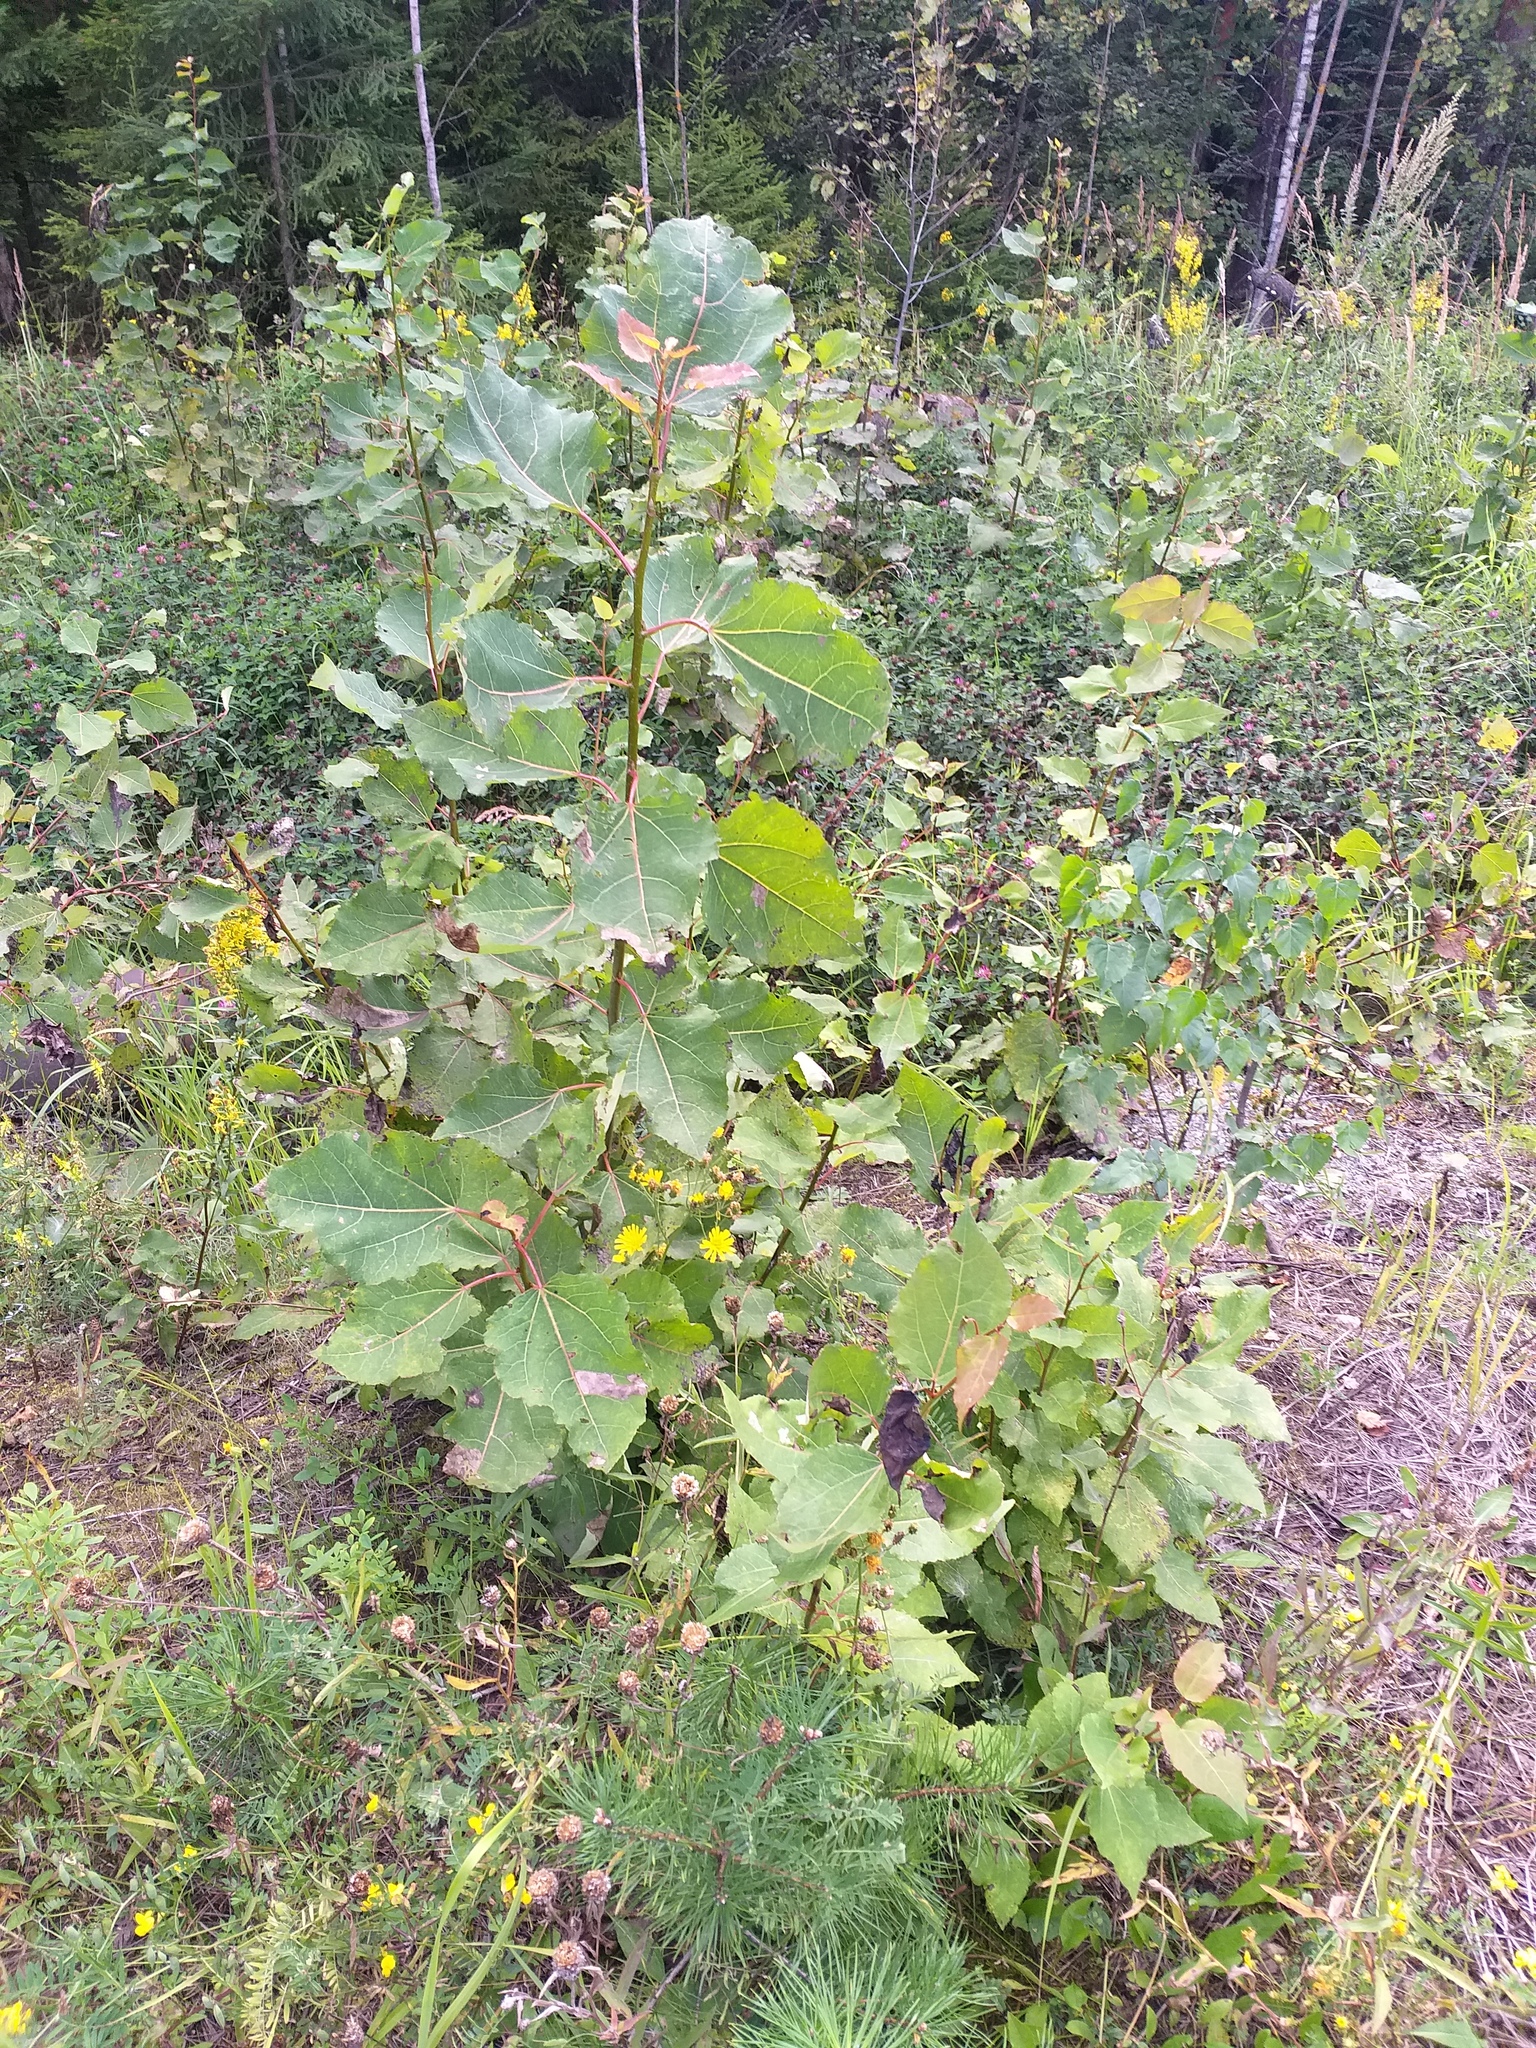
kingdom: Plantae
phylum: Tracheophyta
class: Magnoliopsida
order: Malpighiales
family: Salicaceae
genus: Populus
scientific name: Populus tremula
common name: European aspen
